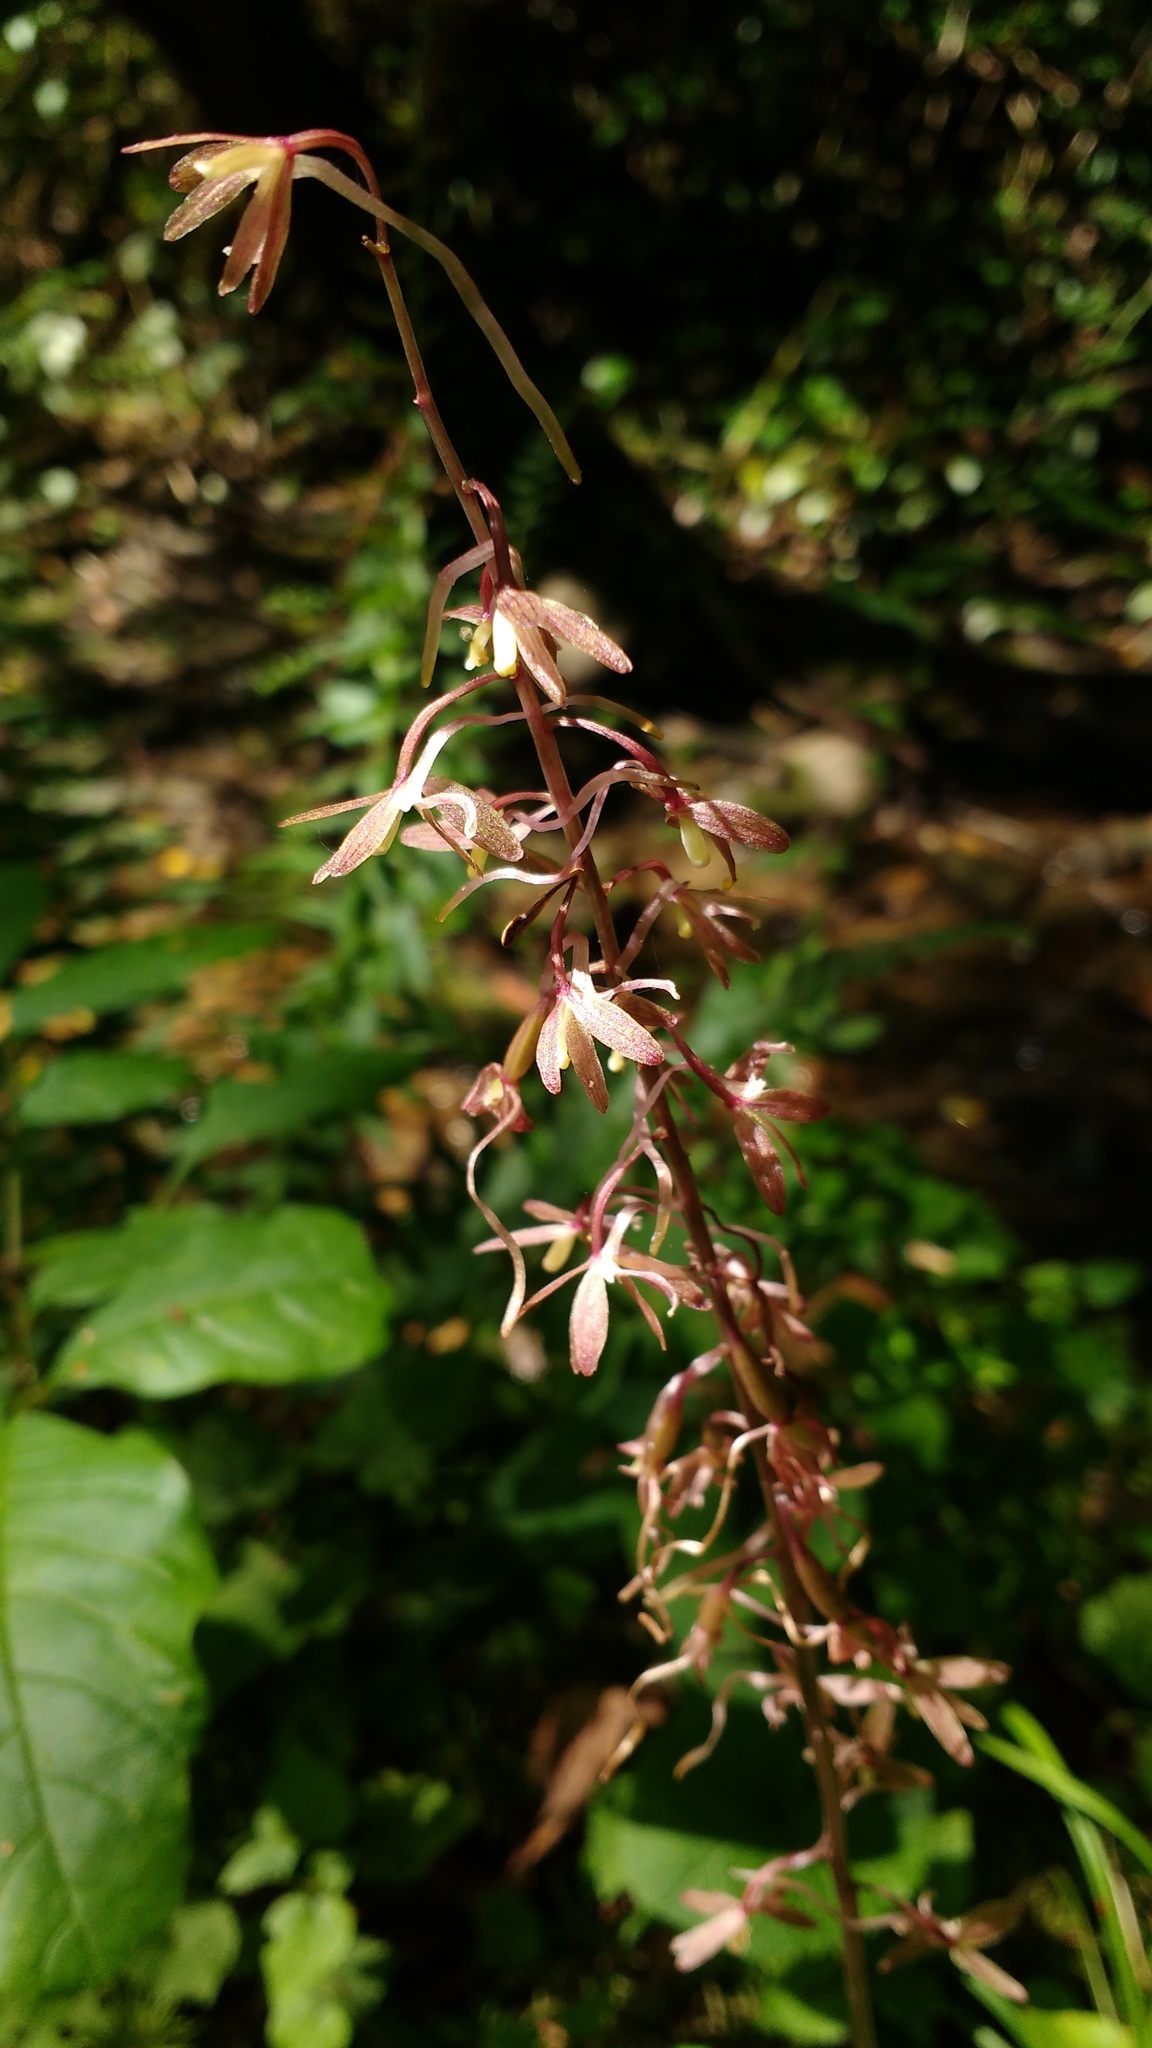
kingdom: Plantae
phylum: Tracheophyta
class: Liliopsida
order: Asparagales
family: Orchidaceae
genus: Tipularia
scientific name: Tipularia discolor
